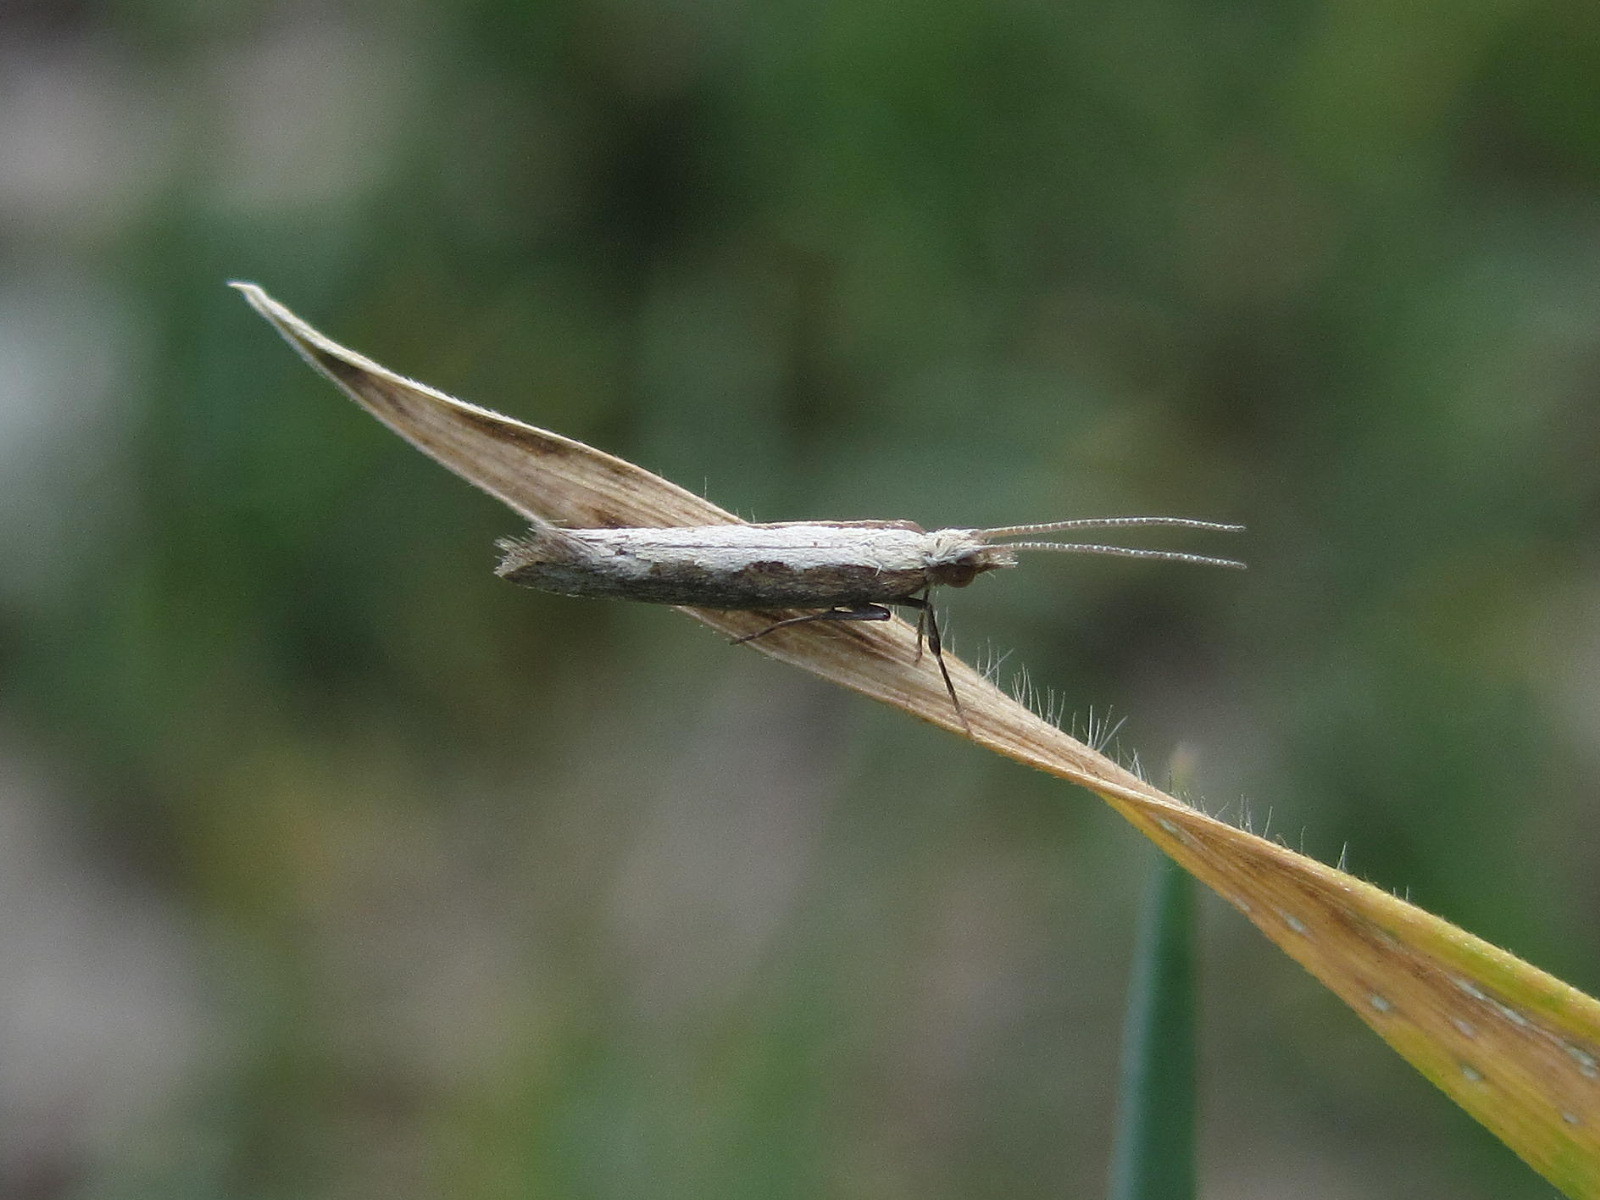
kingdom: Animalia
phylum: Arthropoda
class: Insecta
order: Lepidoptera
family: Plutellidae
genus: Plutella
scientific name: Plutella xylostella
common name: Diamond-back moth
